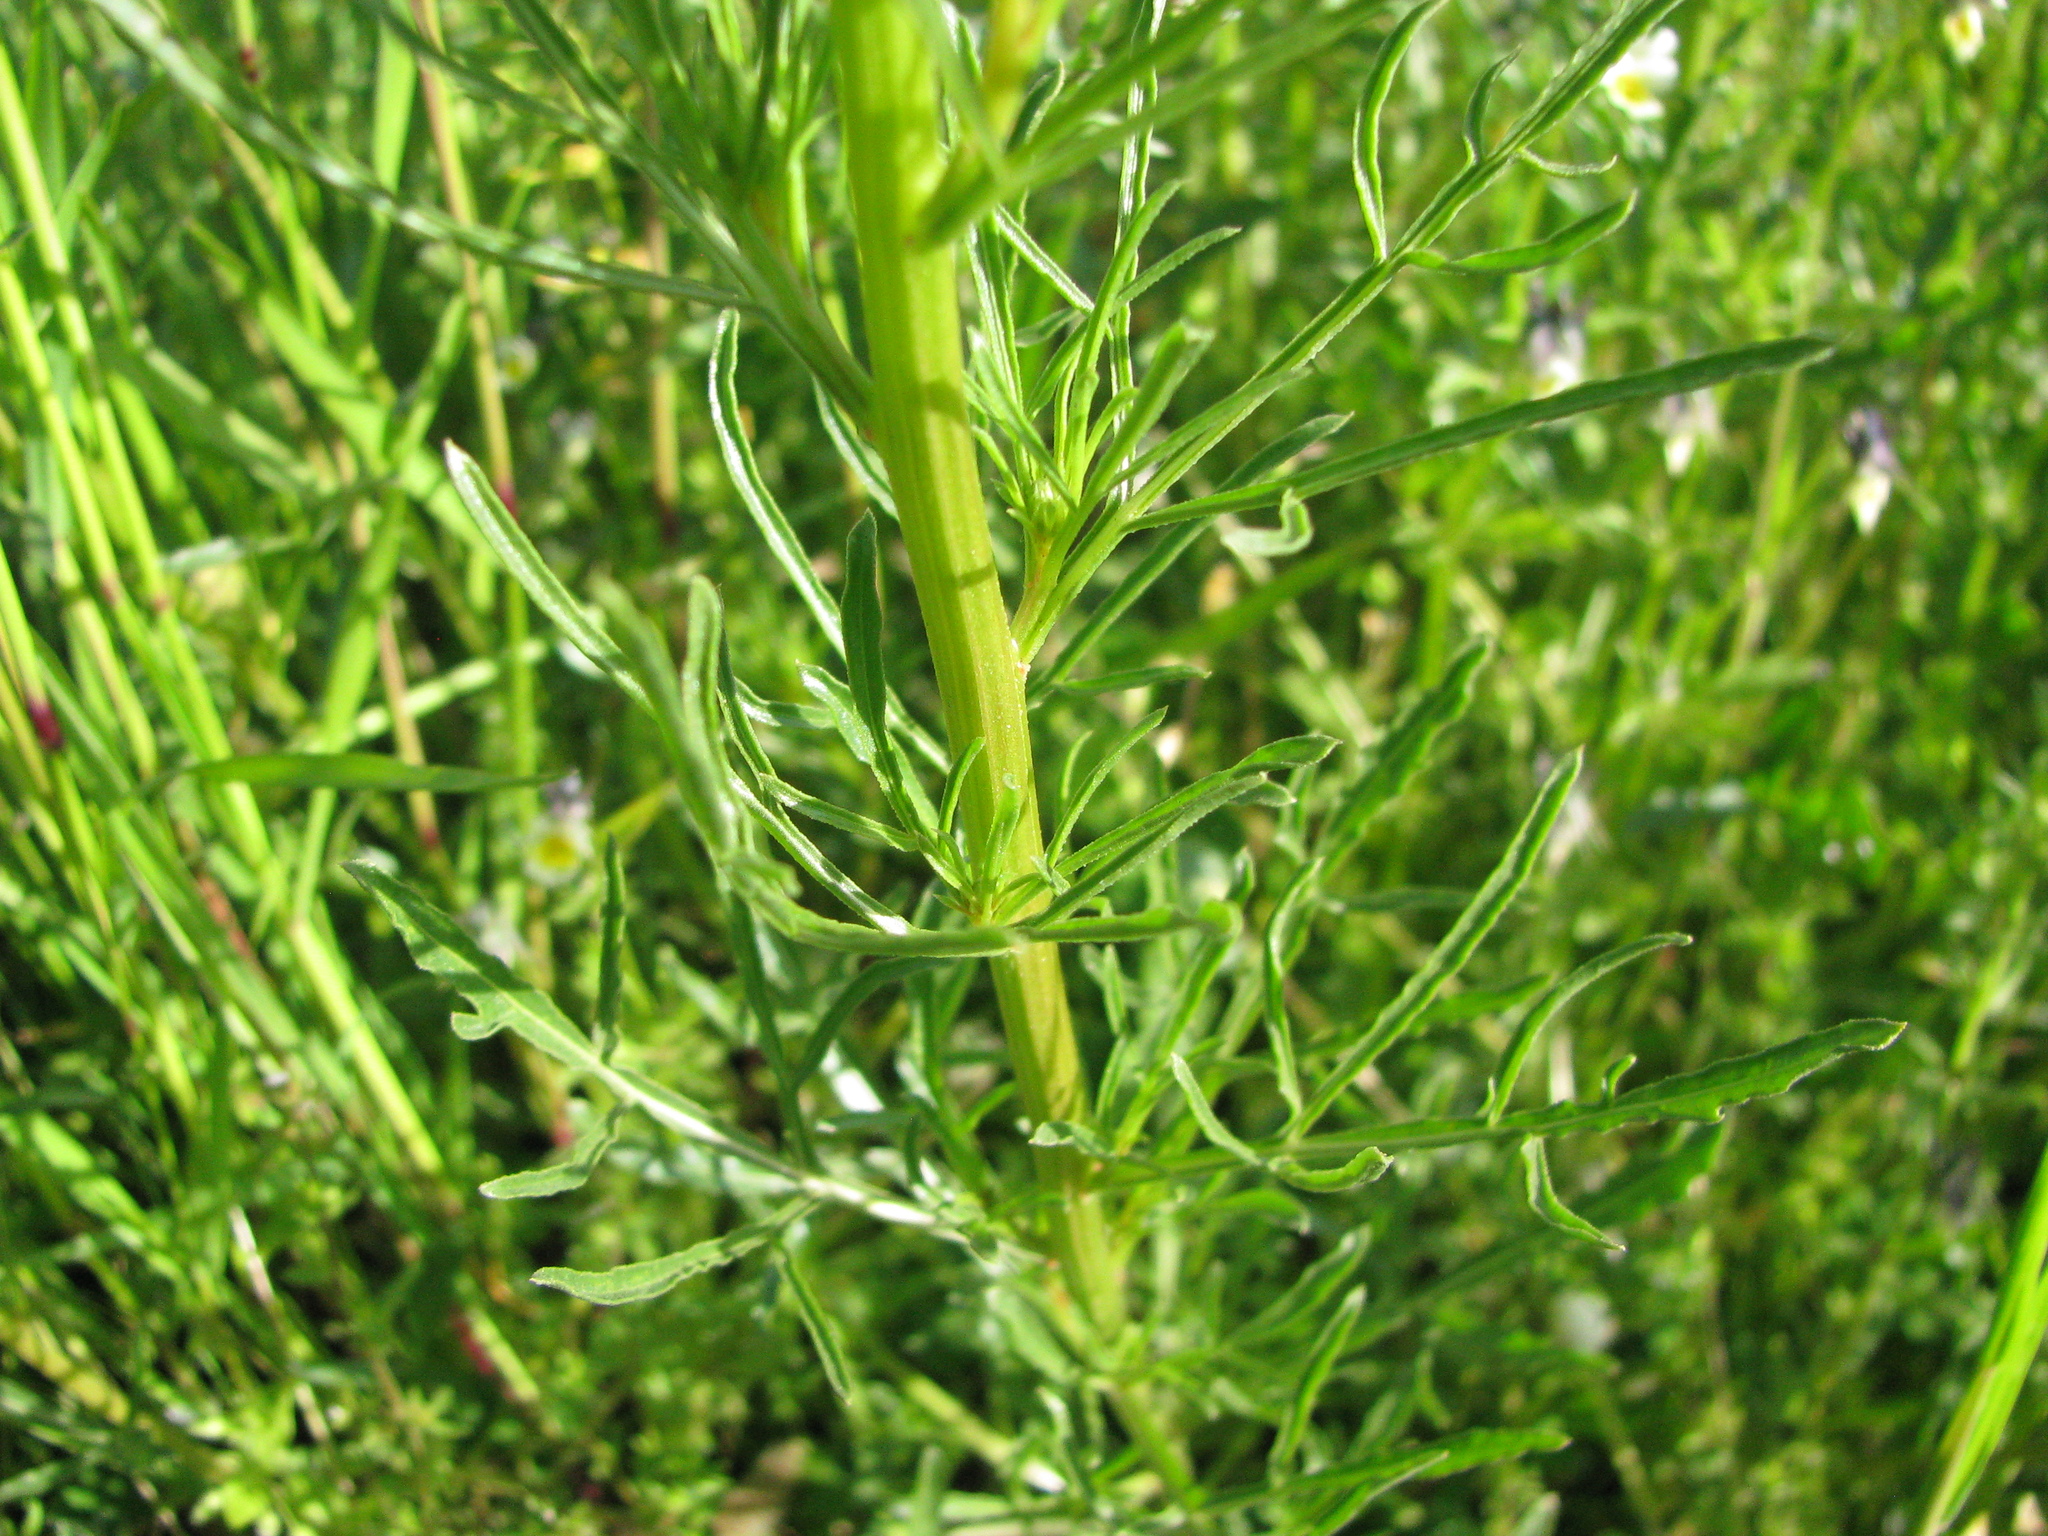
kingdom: Plantae
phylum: Tracheophyta
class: Magnoliopsida
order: Brassicales
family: Resedaceae
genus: Reseda
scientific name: Reseda lutea
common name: Wild mignonette
